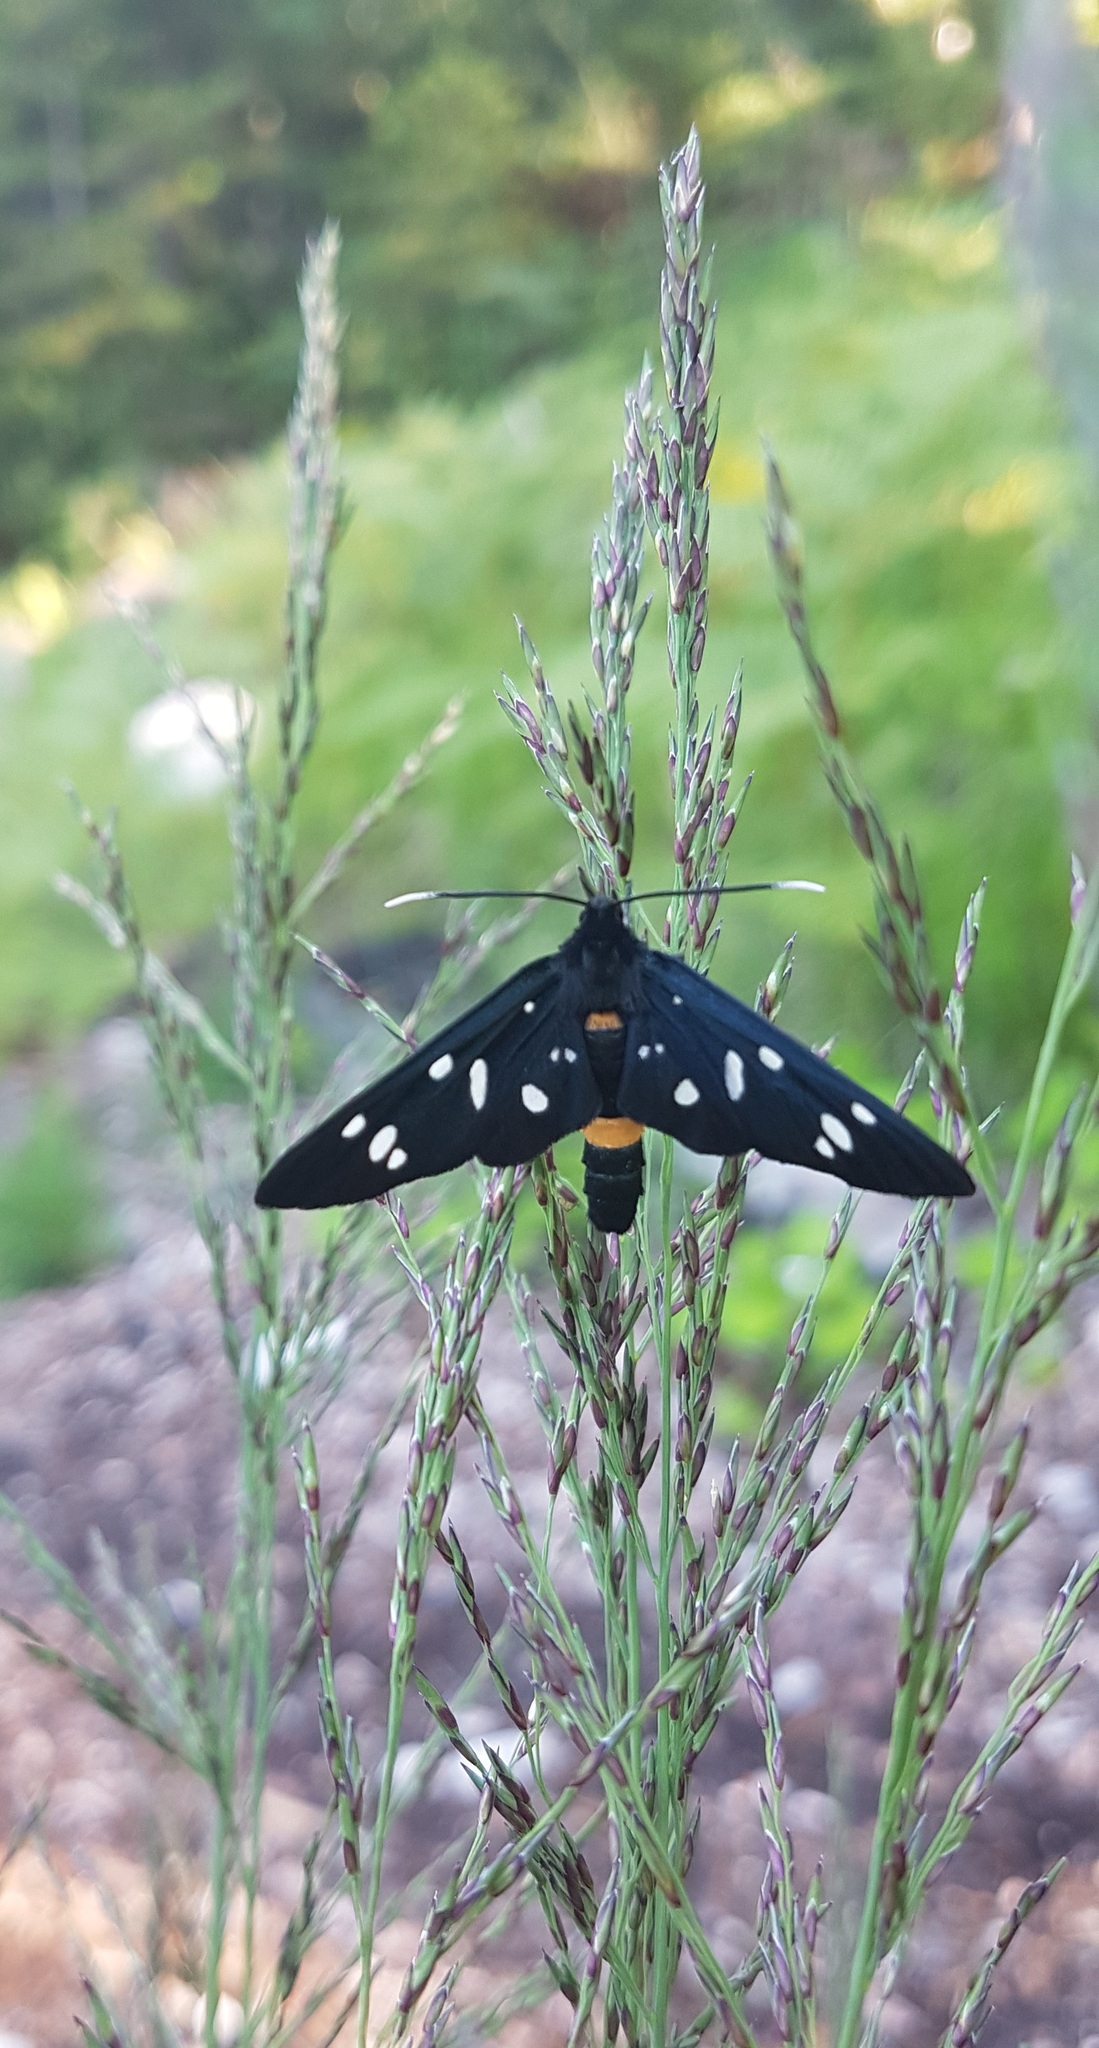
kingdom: Animalia
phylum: Arthropoda
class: Insecta
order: Lepidoptera
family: Erebidae
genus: Amata
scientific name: Amata phegea
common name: Nine-spotted
